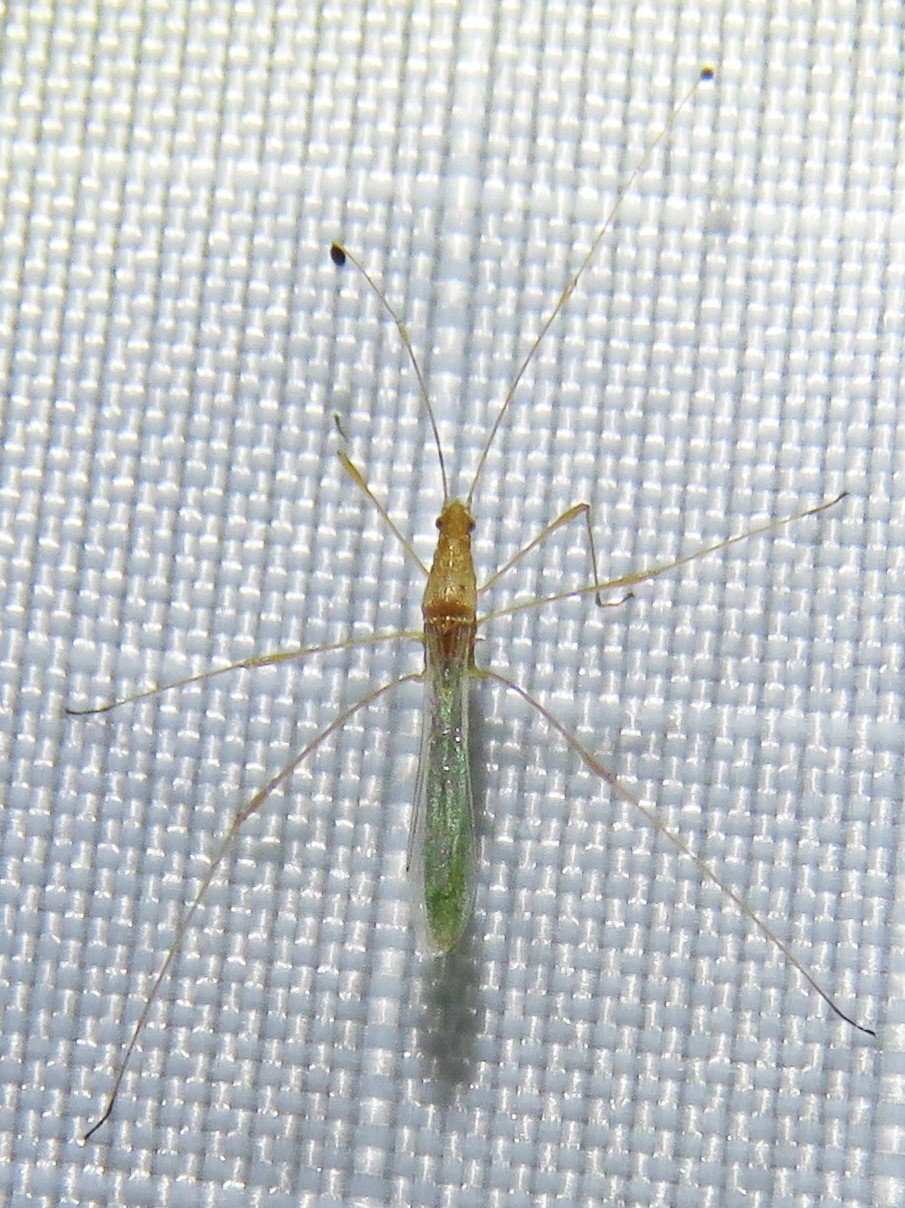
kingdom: Animalia
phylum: Arthropoda
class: Insecta
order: Hemiptera
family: Berytidae
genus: Metacanthus
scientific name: Metacanthus multispinus
